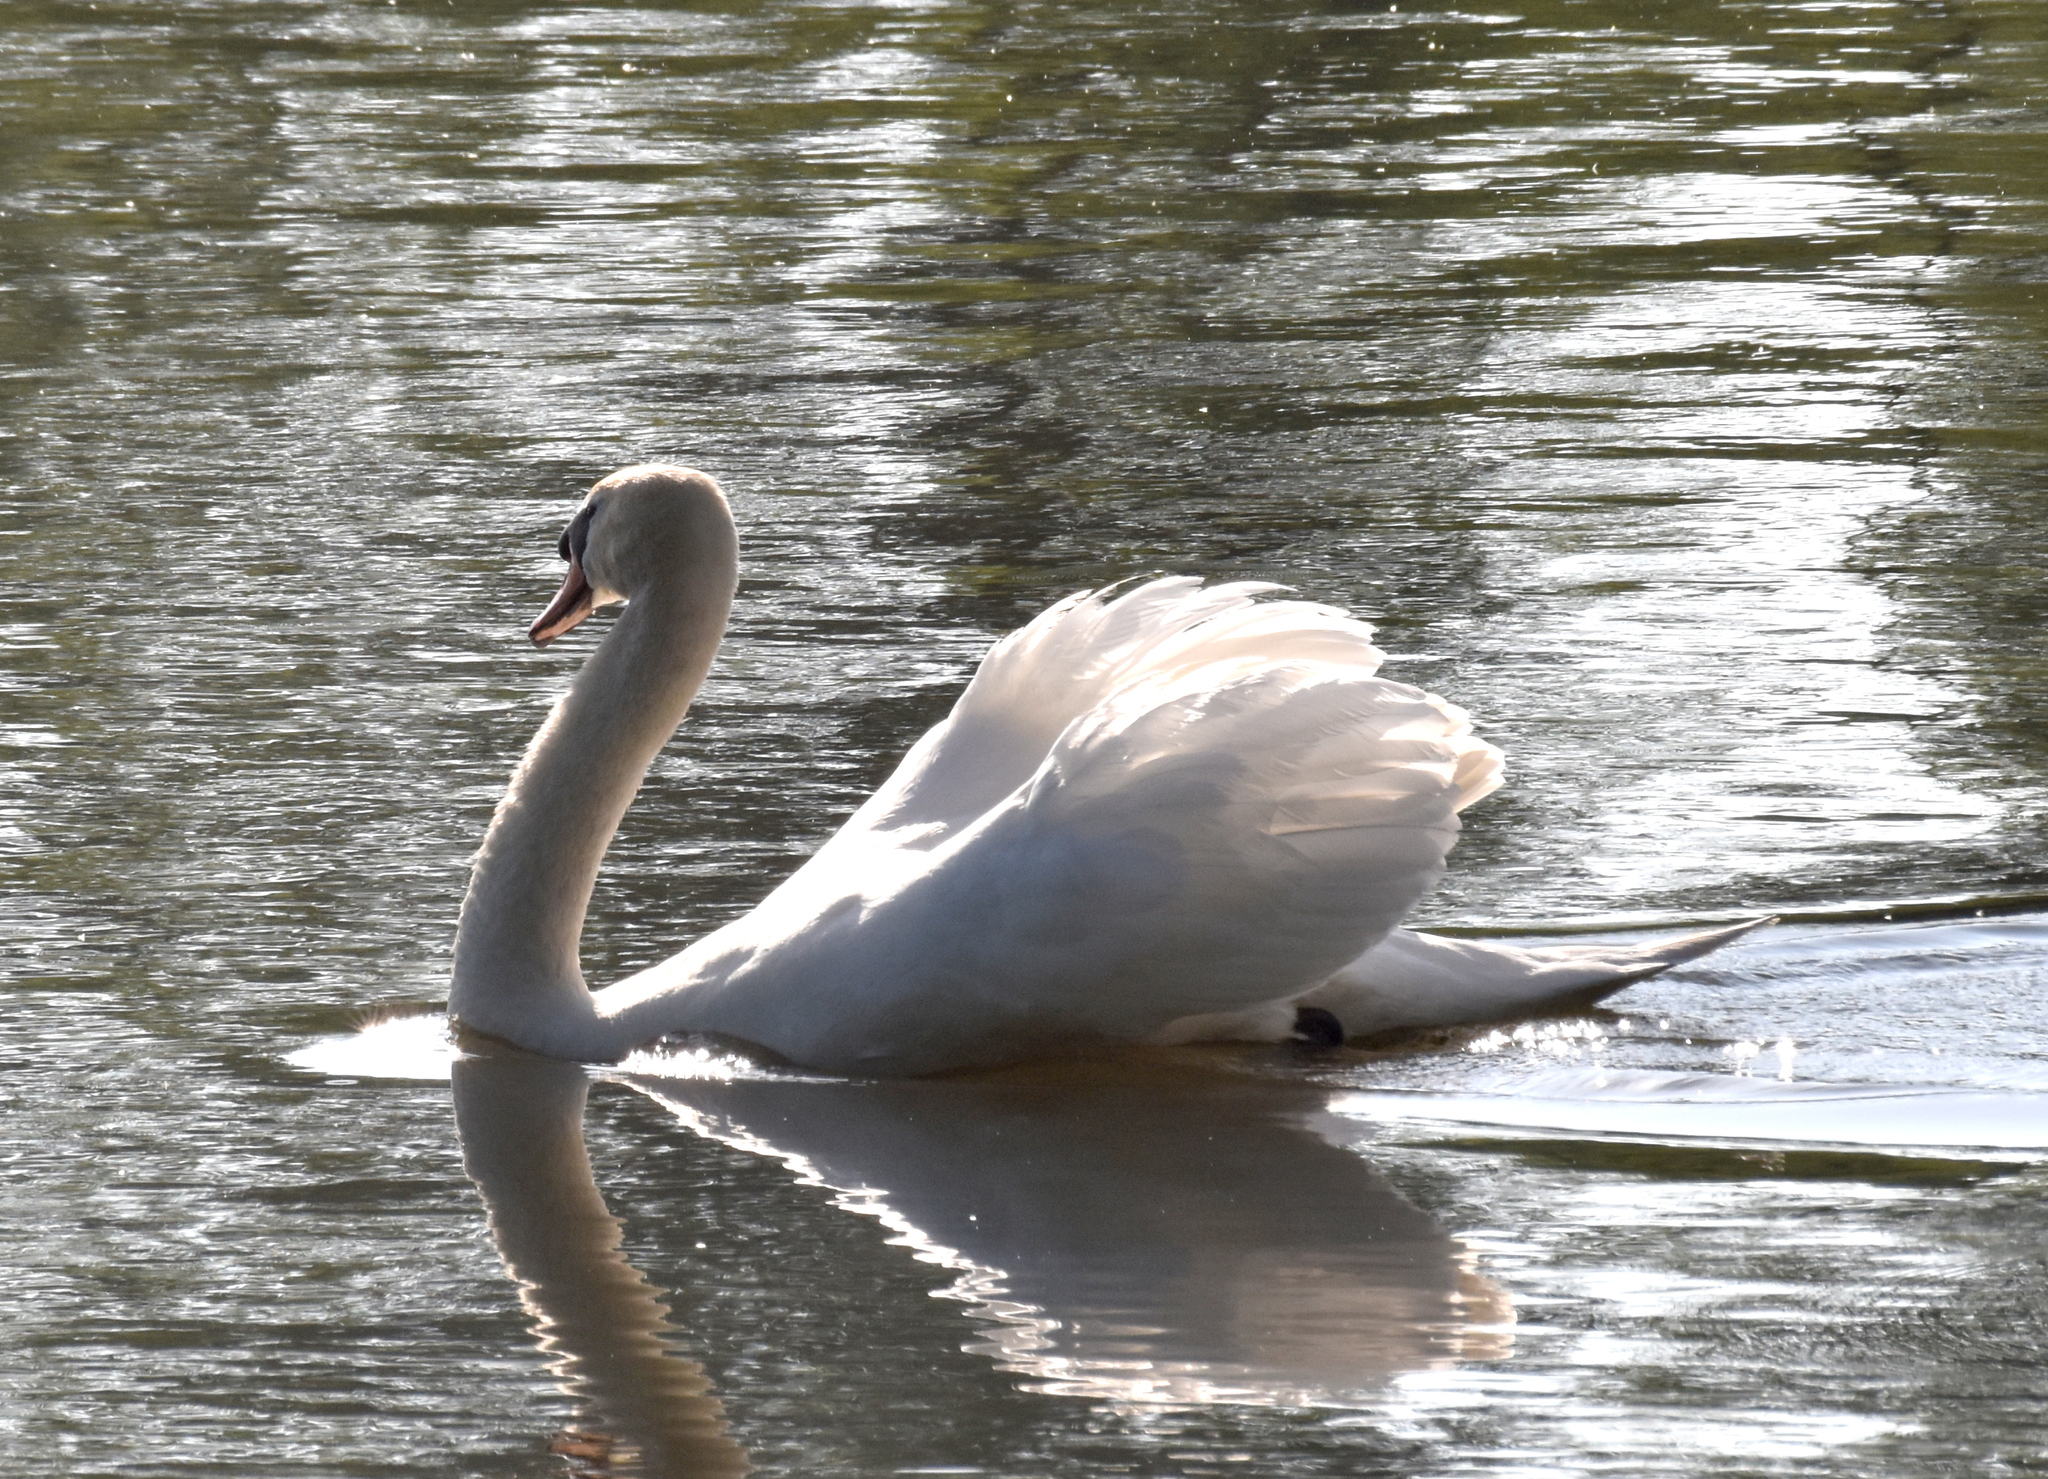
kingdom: Animalia
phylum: Chordata
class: Aves
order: Anseriformes
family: Anatidae
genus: Cygnus
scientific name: Cygnus olor
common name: Mute swan
